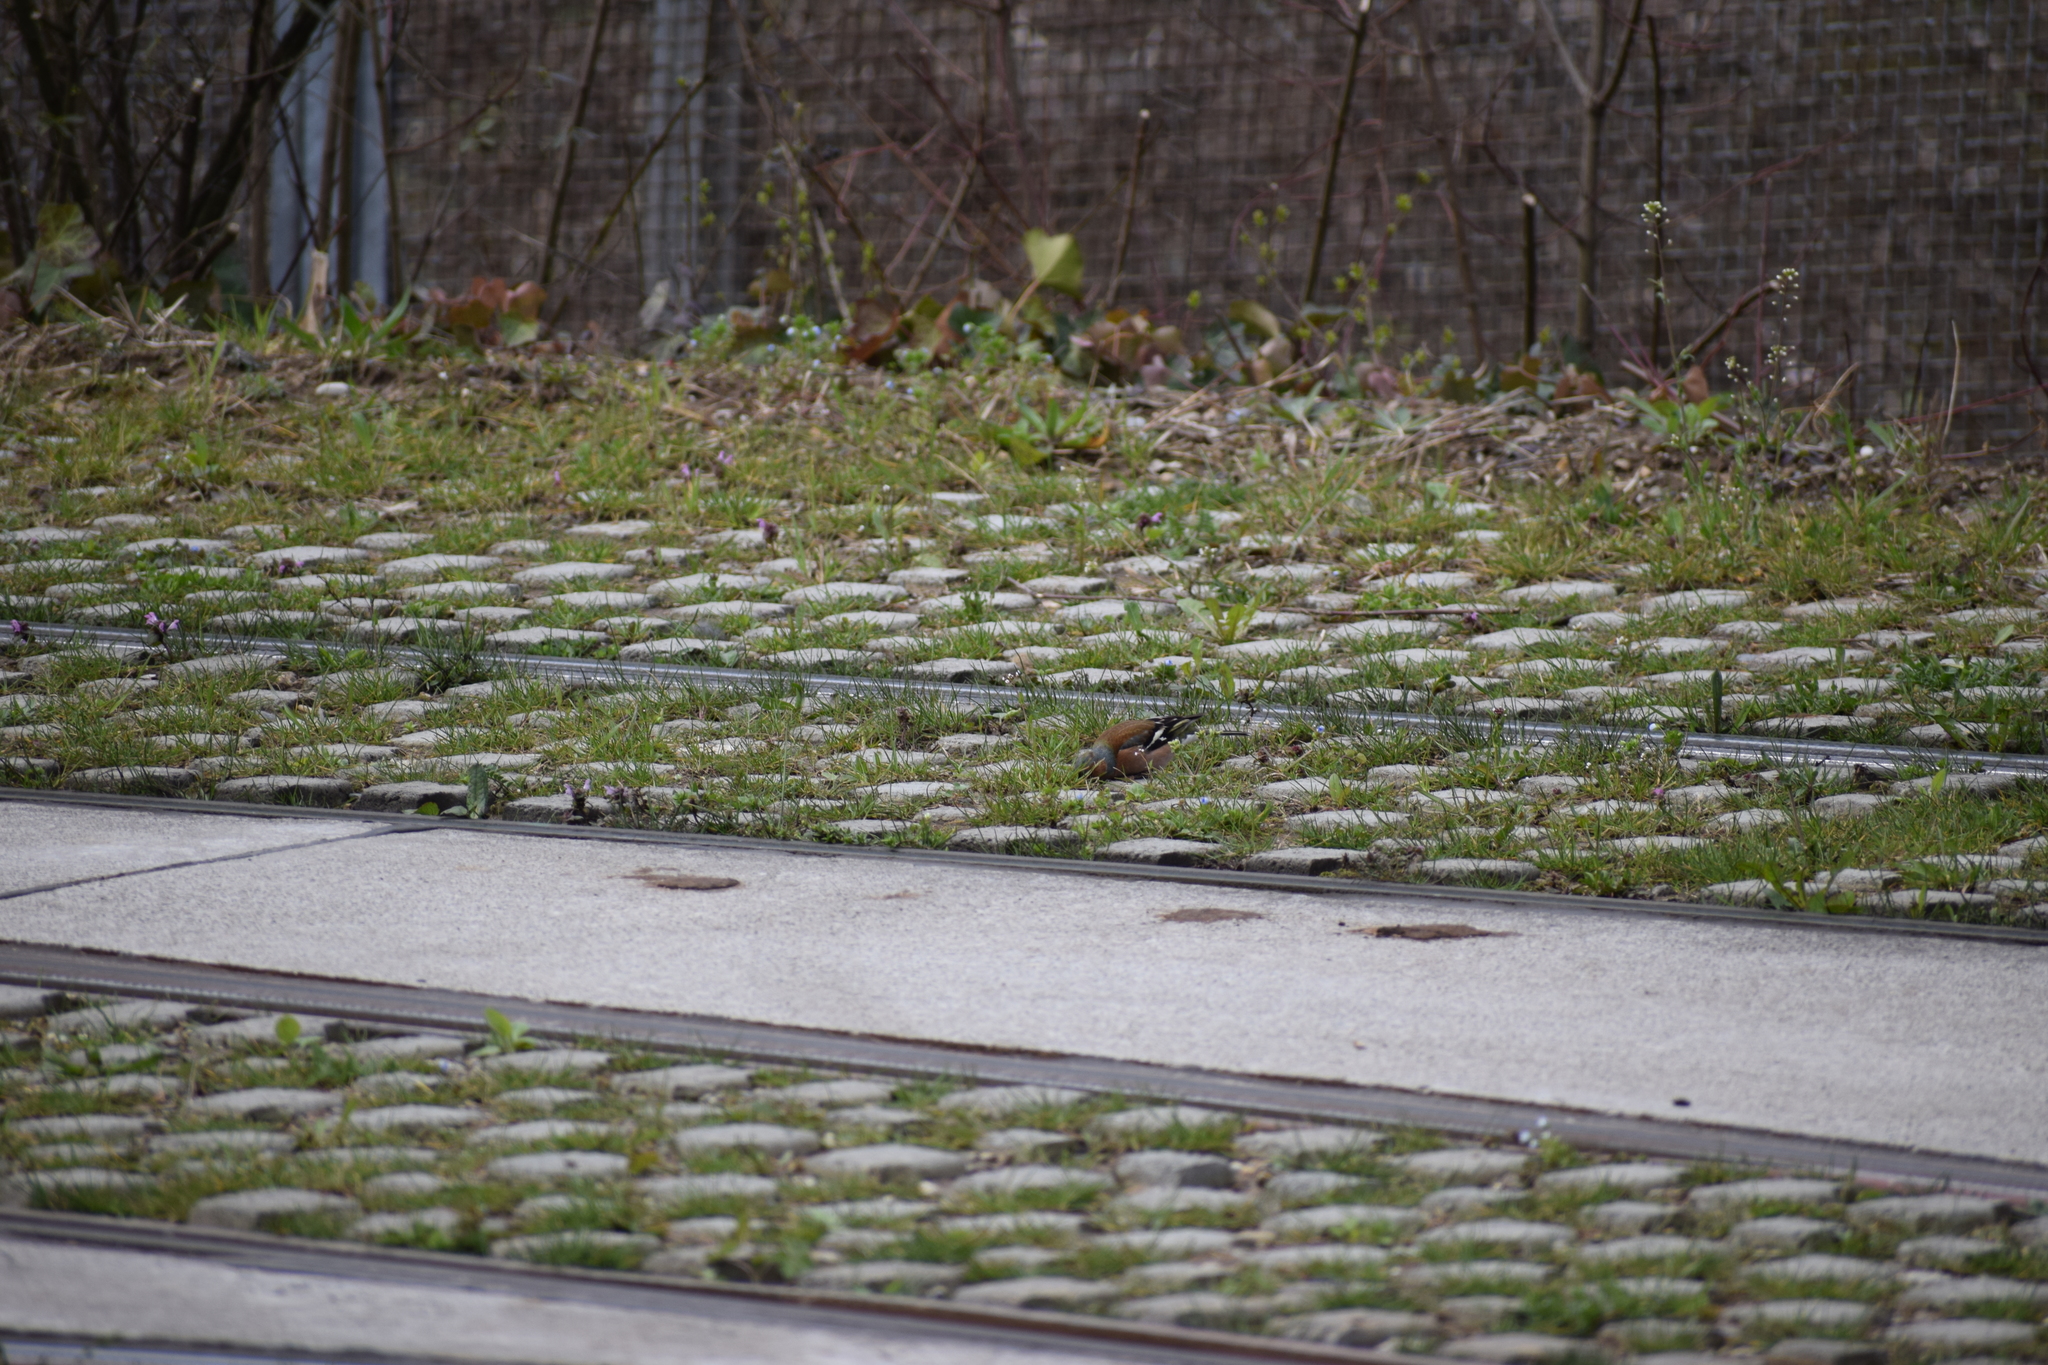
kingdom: Animalia
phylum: Chordata
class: Aves
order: Passeriformes
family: Fringillidae
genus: Fringilla
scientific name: Fringilla coelebs
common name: Common chaffinch
